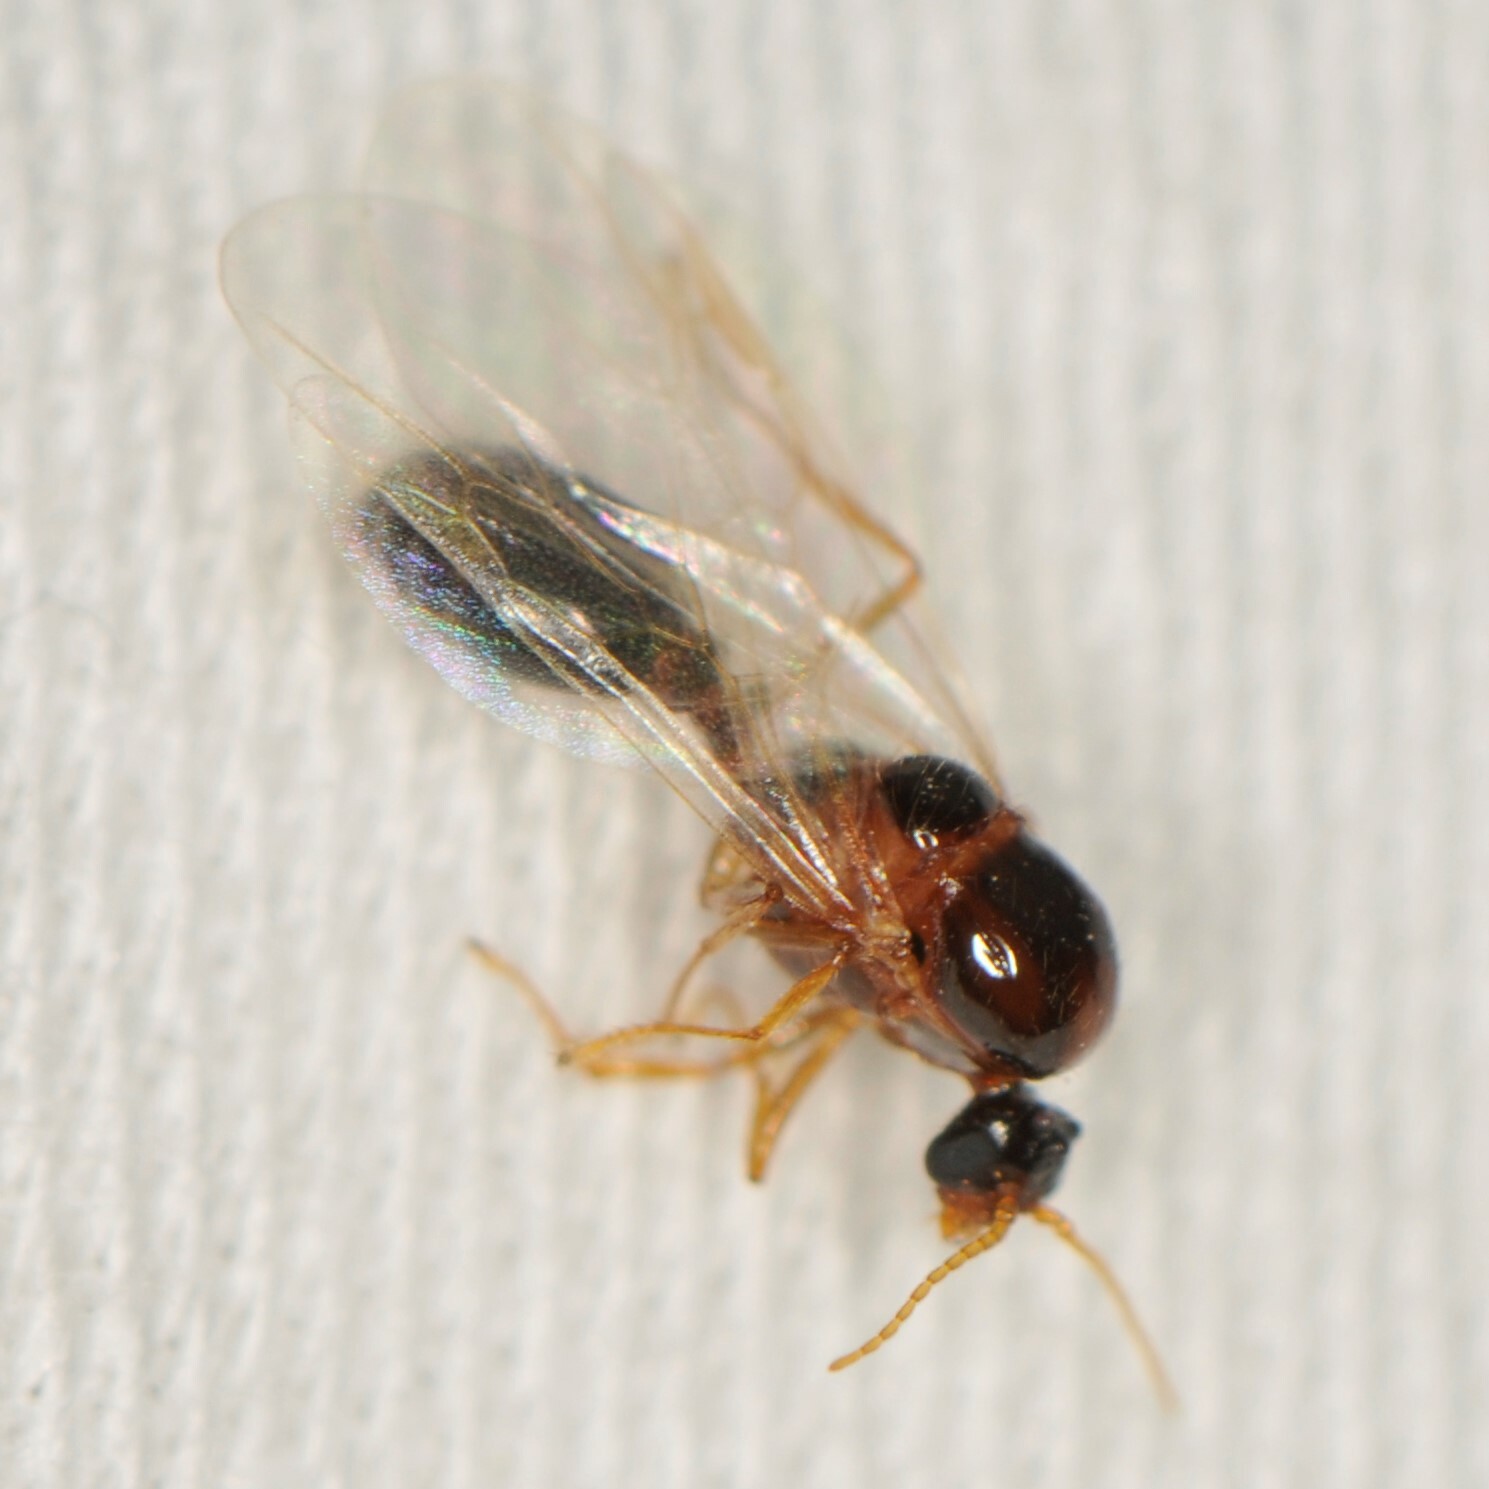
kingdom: Animalia
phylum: Arthropoda
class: Insecta
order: Hymenoptera
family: Formicidae
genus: Pheidole
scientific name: Pheidole
